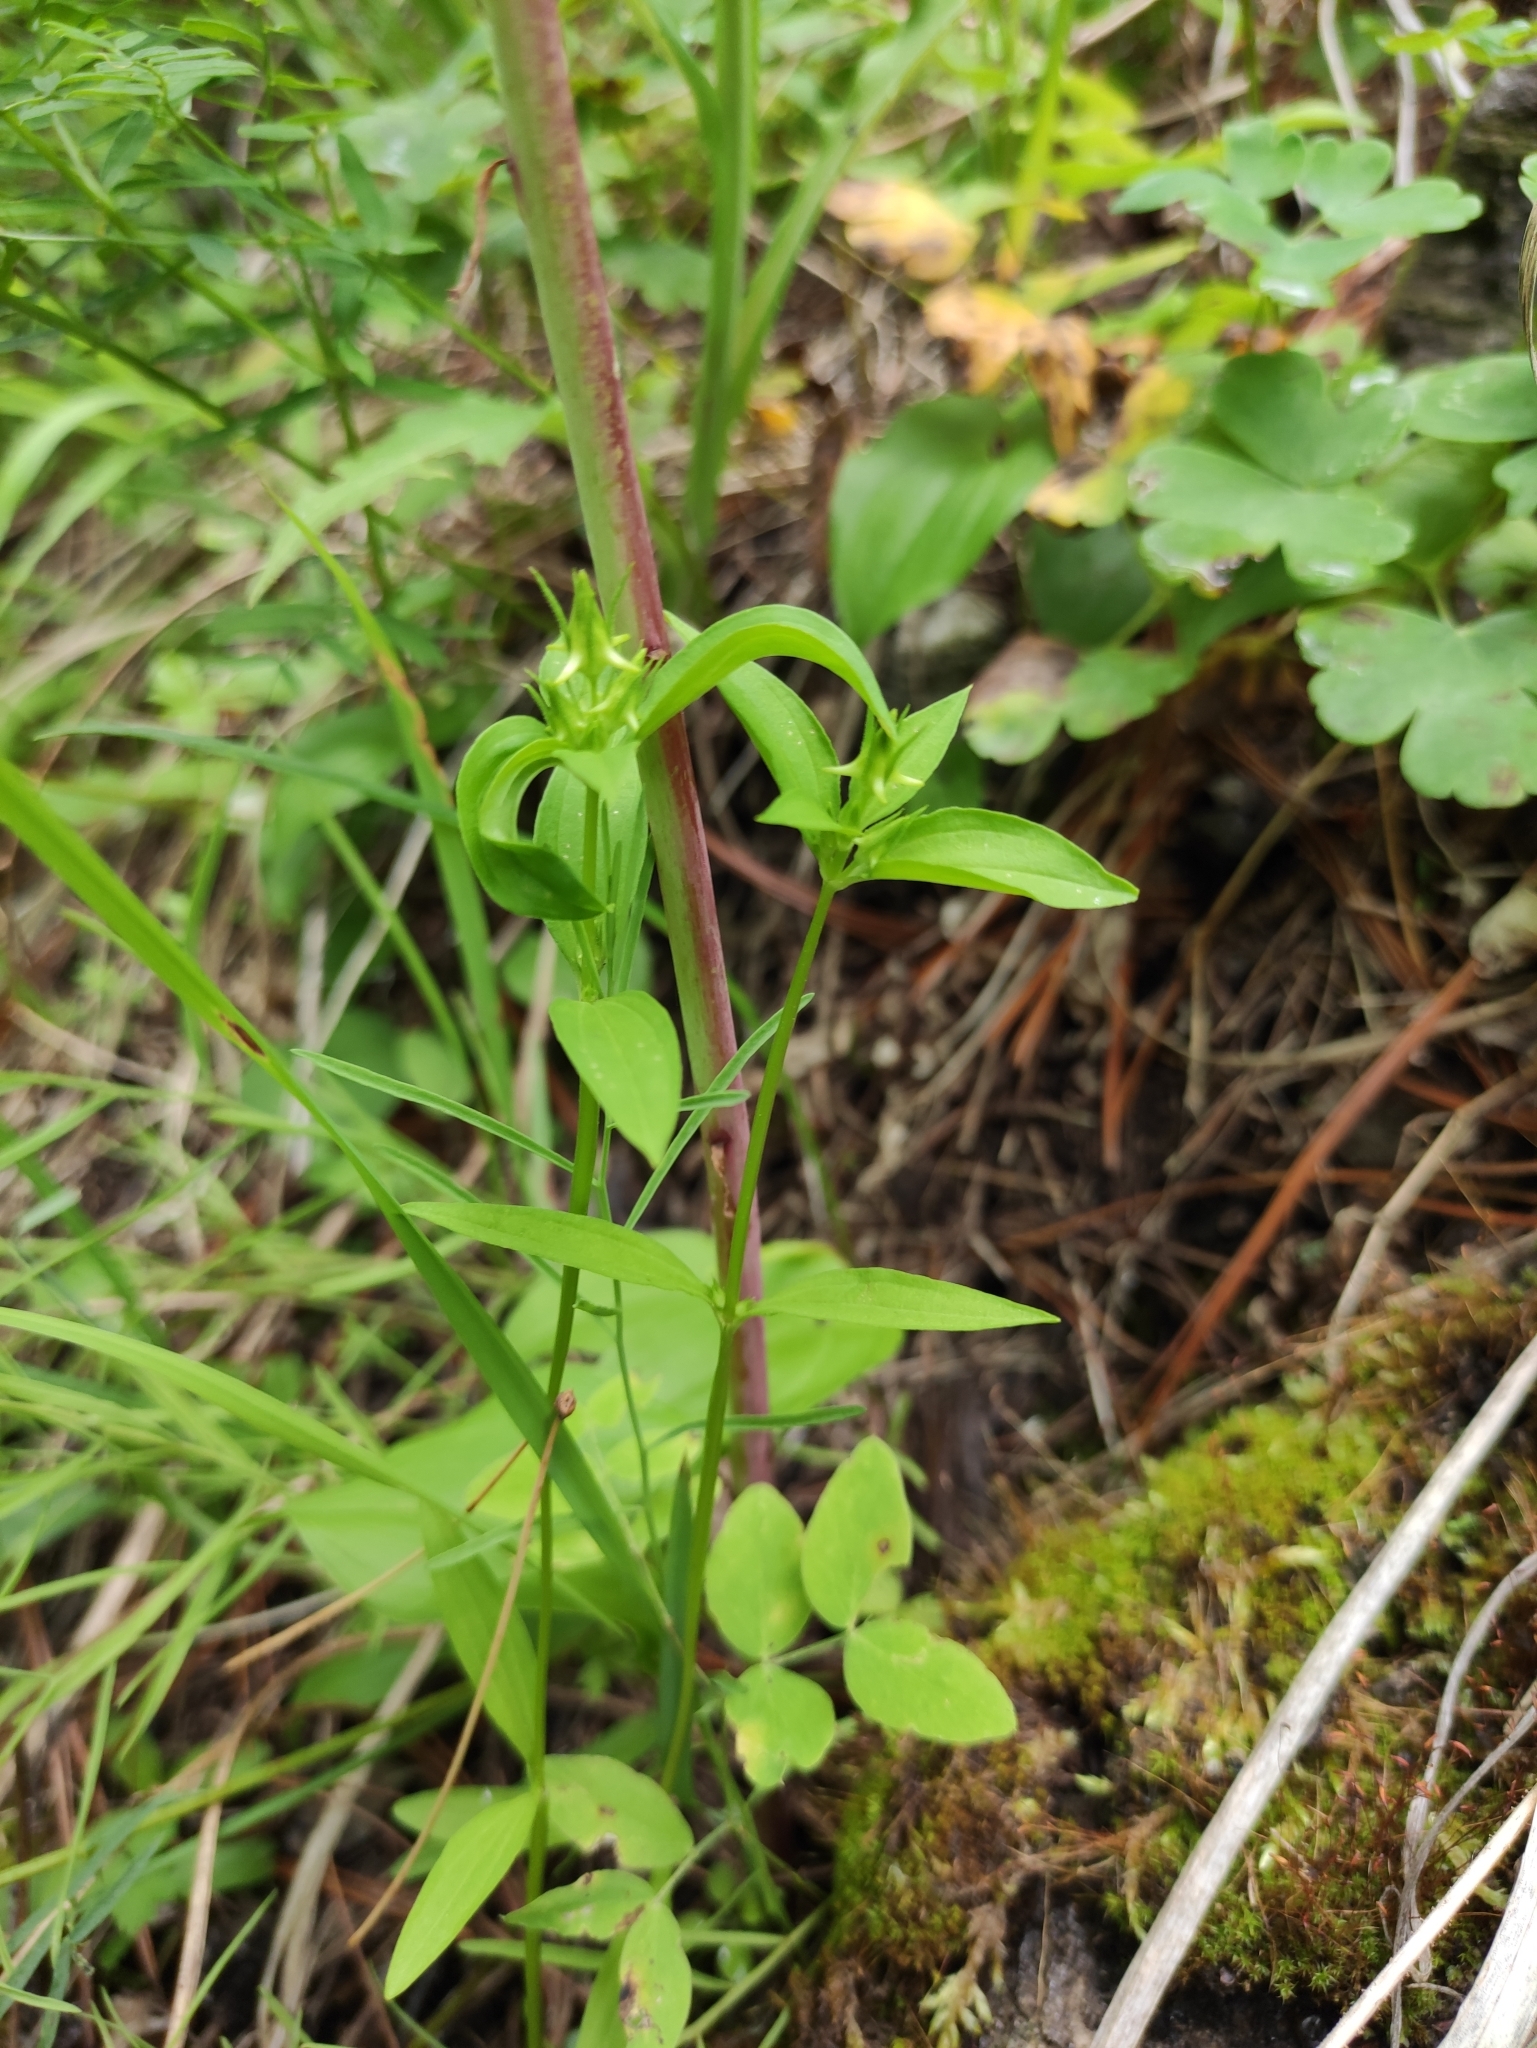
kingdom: Plantae
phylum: Tracheophyta
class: Magnoliopsida
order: Gentianales
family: Gentianaceae
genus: Halenia
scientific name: Halenia corniculata
